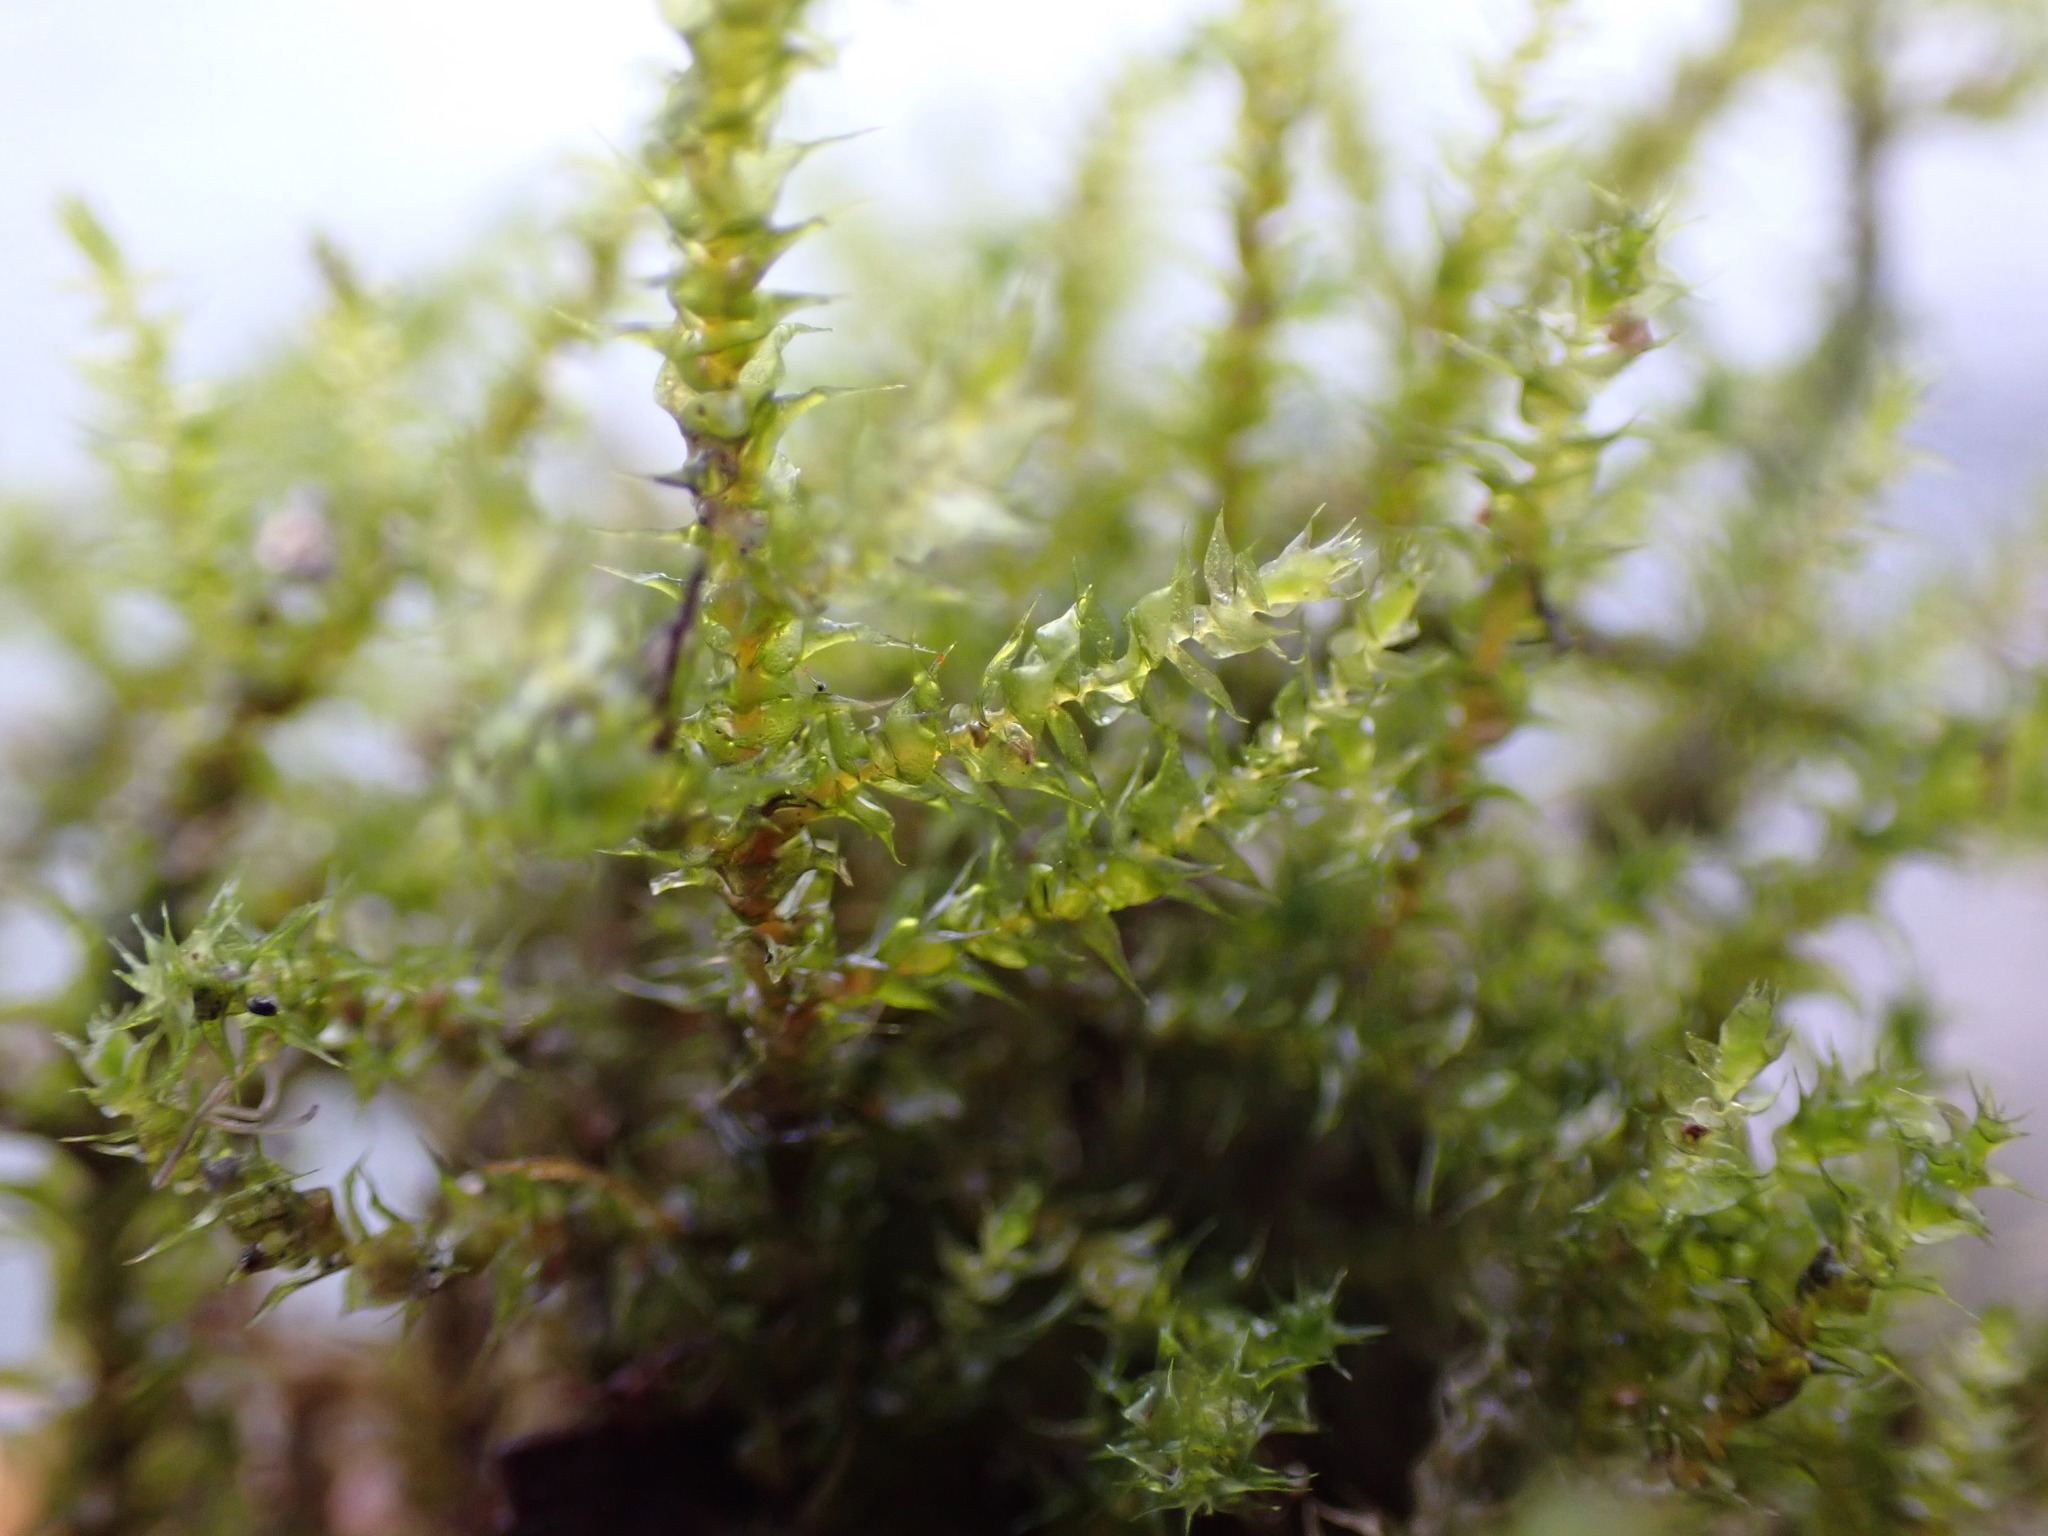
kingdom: Plantae
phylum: Bryophyta
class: Bryopsida
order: Hypnales
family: Hylocomiaceae
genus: Rhytidiadelphus
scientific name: Rhytidiadelphus squarrosus
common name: Springy turf-moss
